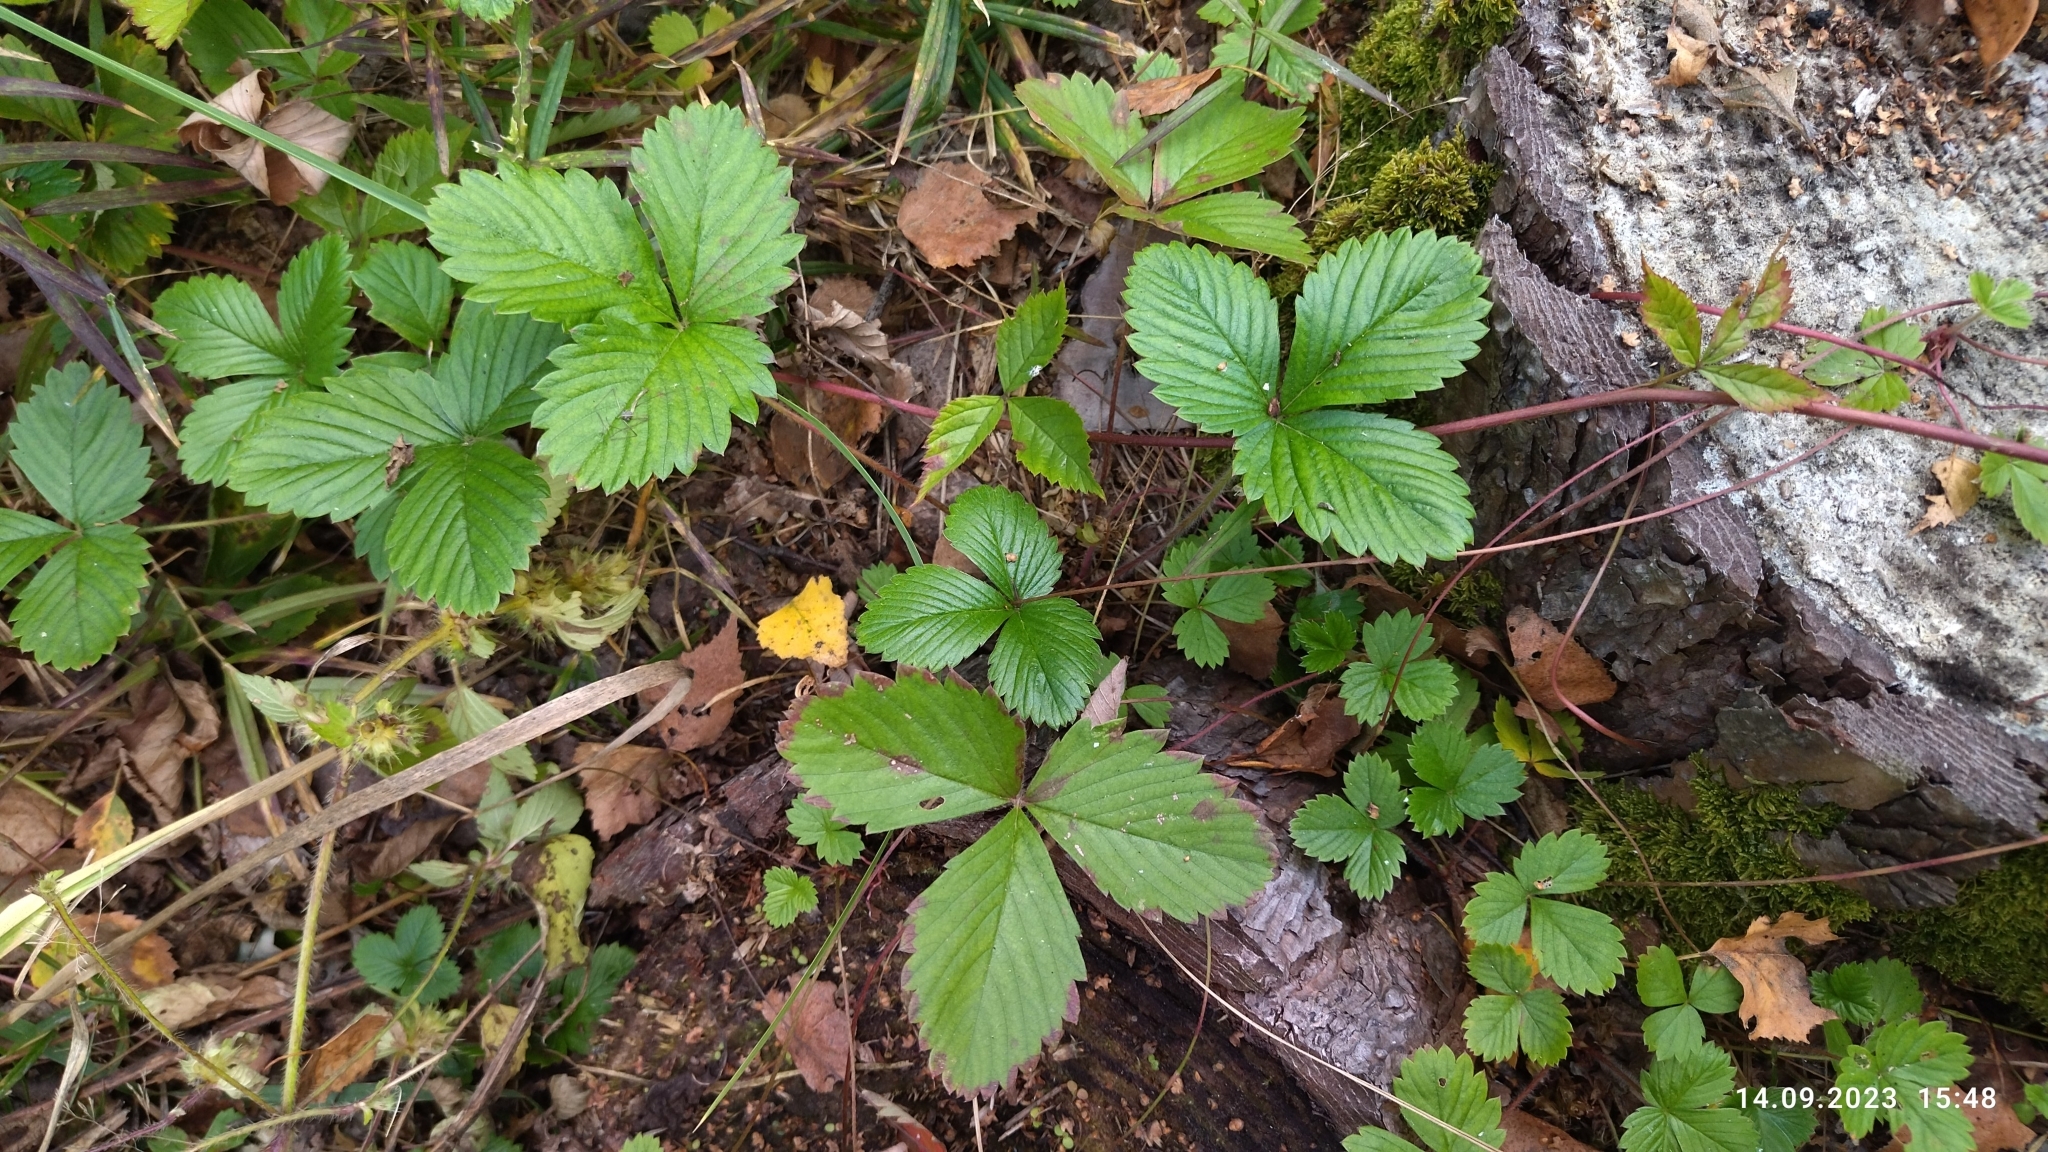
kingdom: Plantae
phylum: Tracheophyta
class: Magnoliopsida
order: Rosales
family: Rosaceae
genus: Fragaria
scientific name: Fragaria vesca
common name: Wild strawberry
